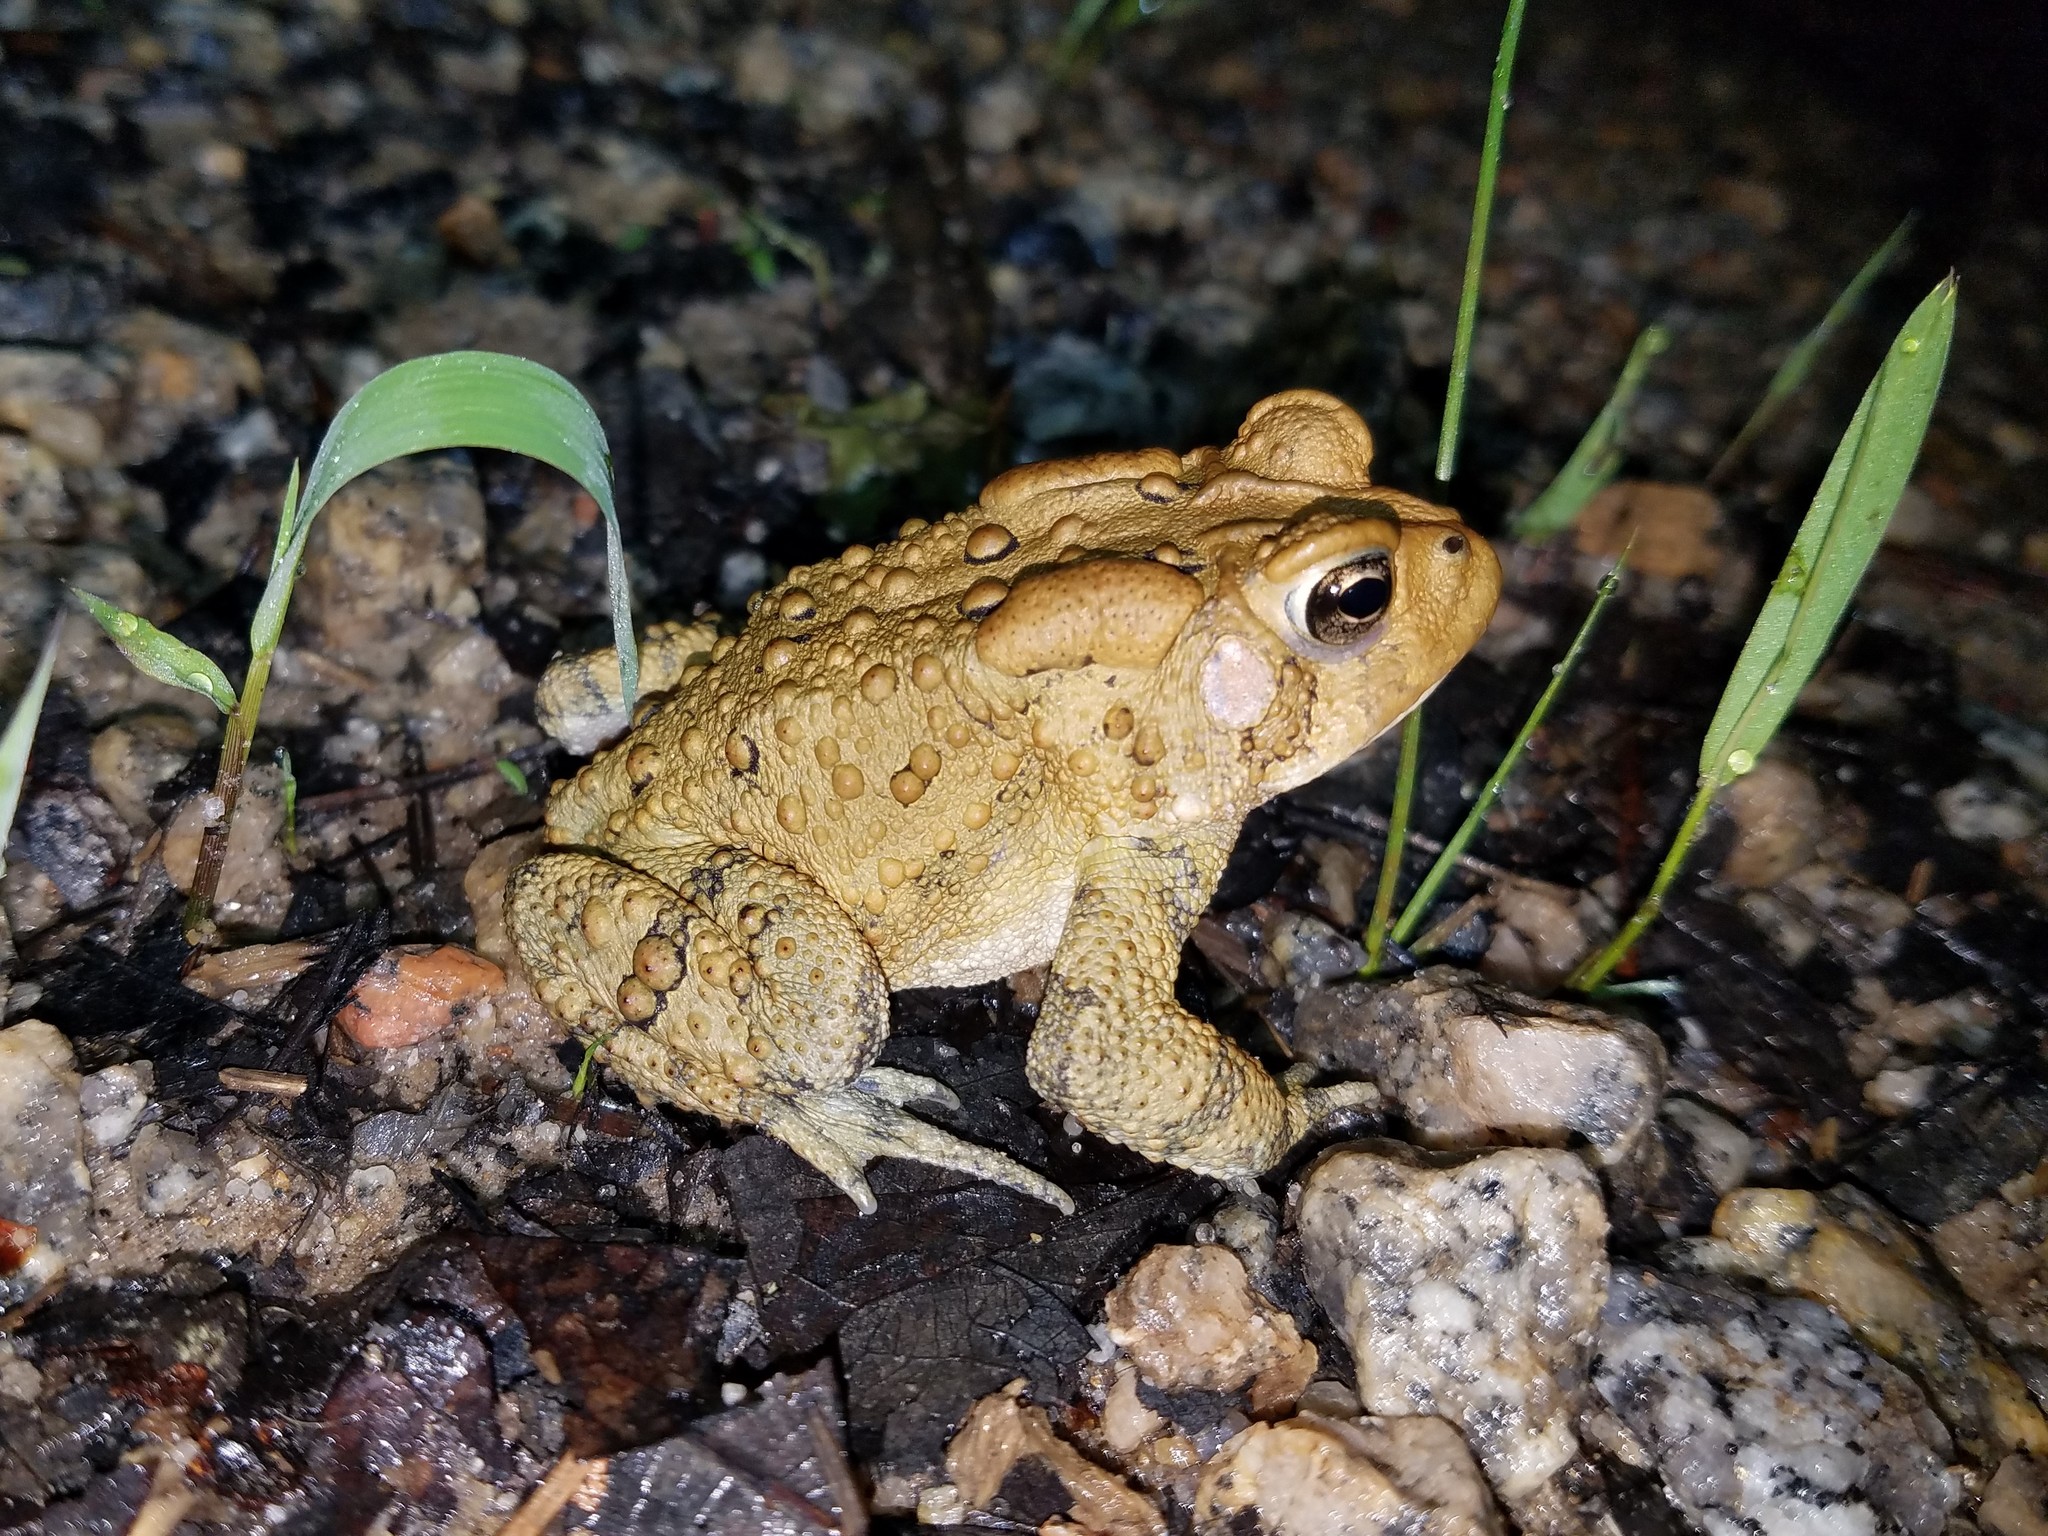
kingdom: Animalia
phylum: Chordata
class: Amphibia
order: Anura
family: Bufonidae
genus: Anaxyrus
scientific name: Anaxyrus americanus
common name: American toad
